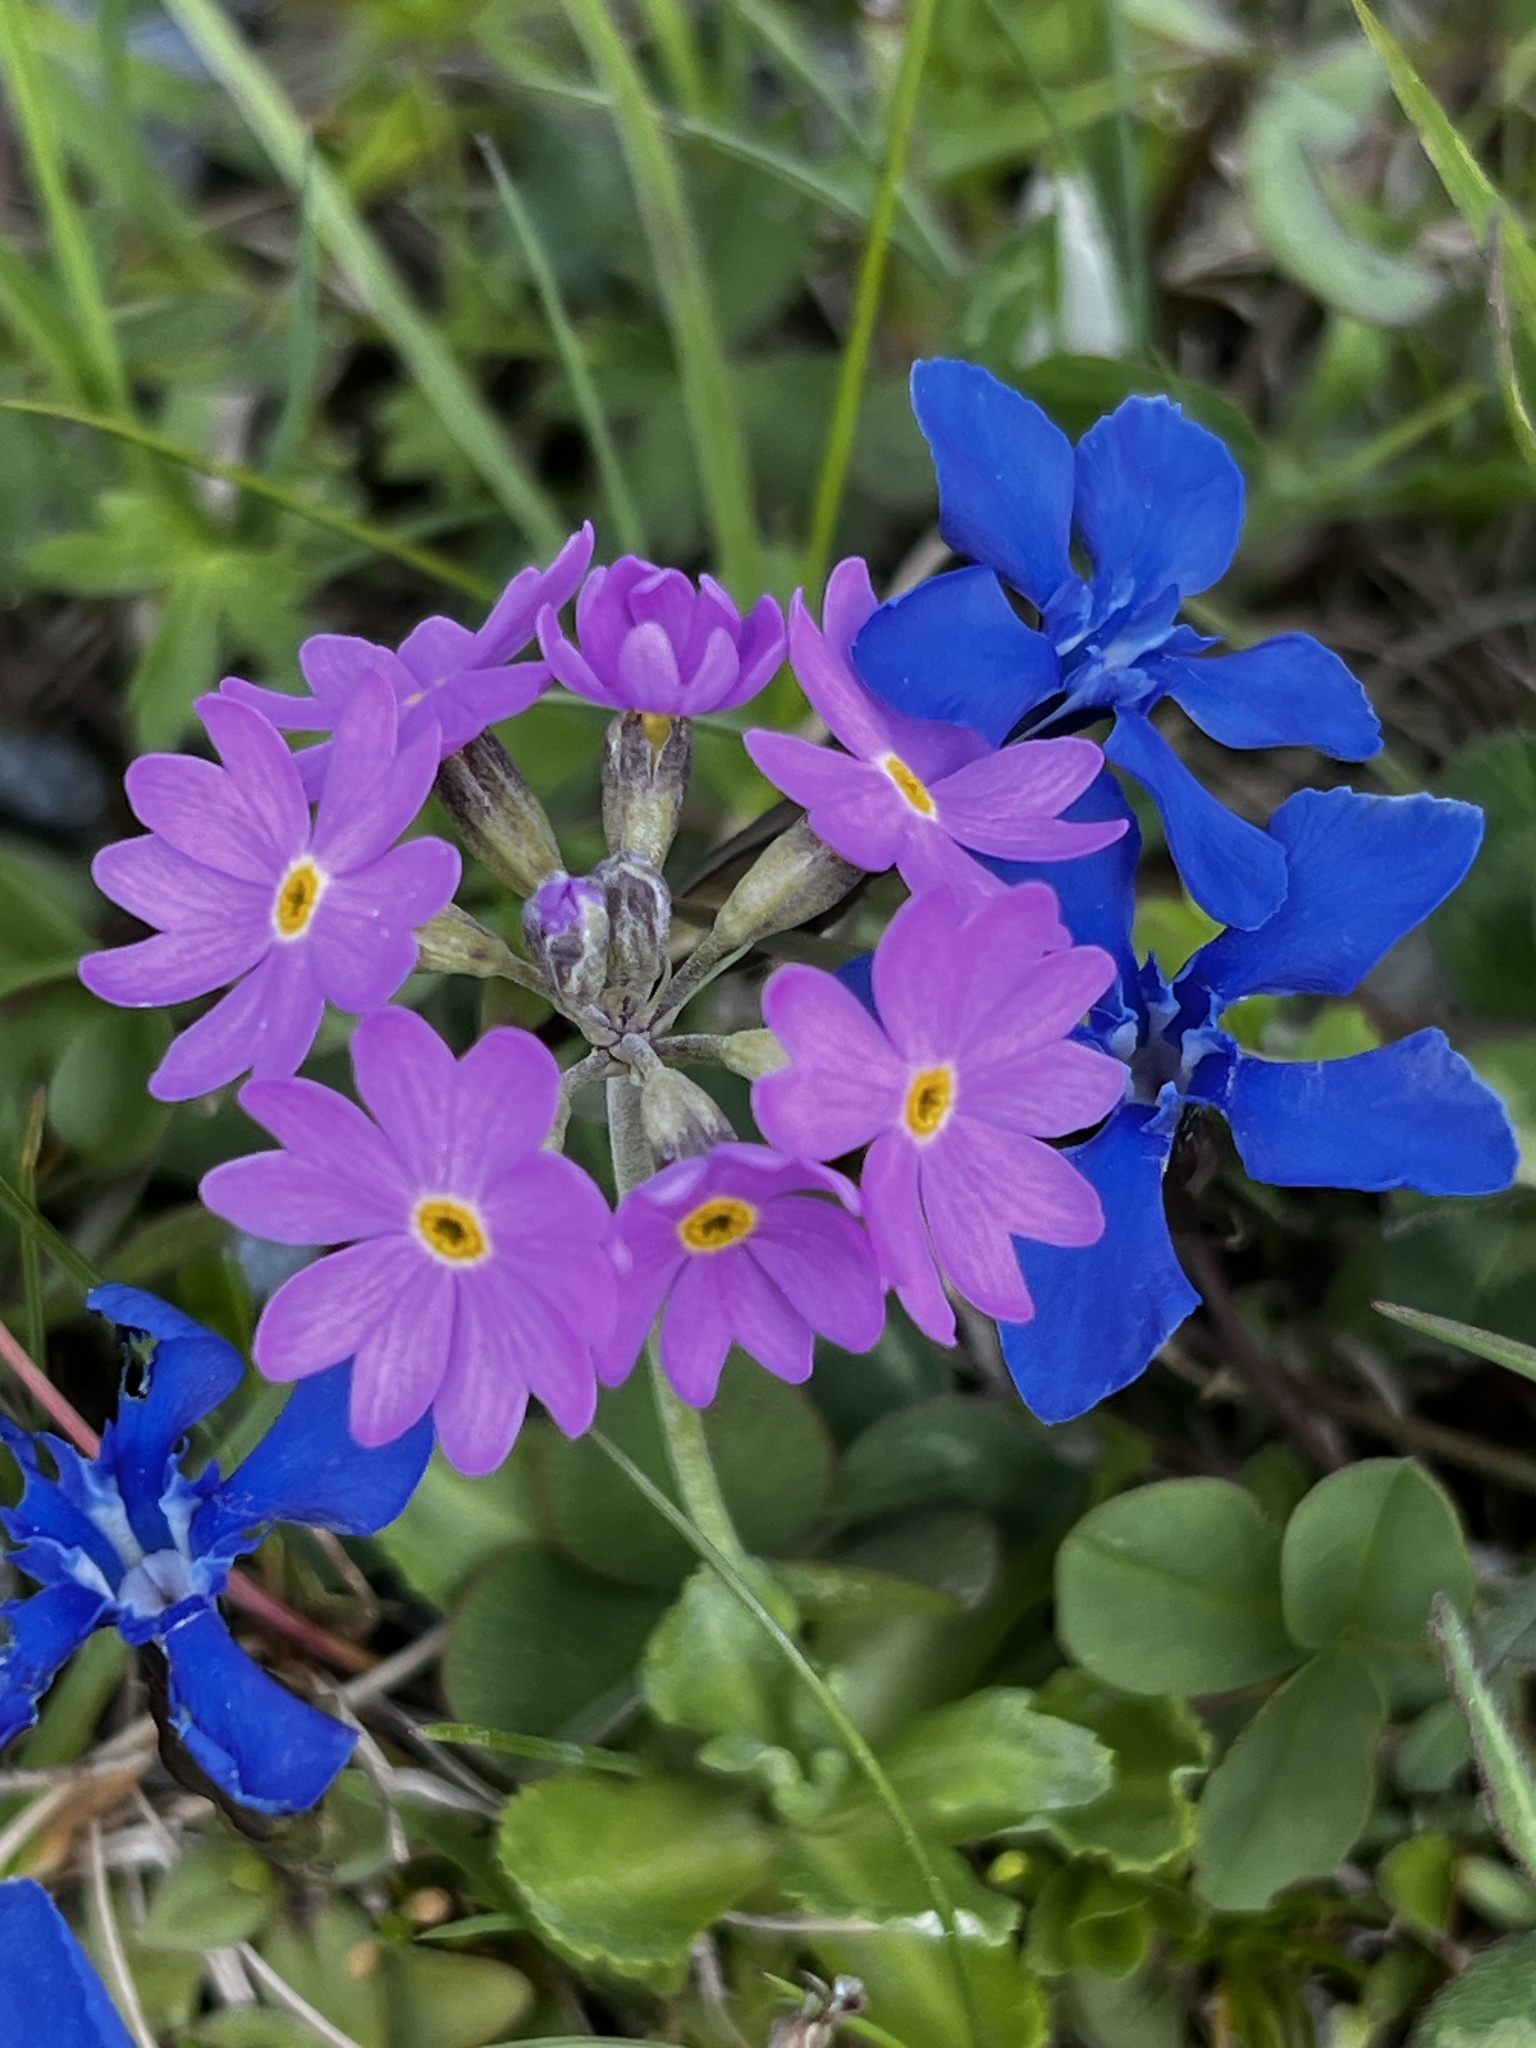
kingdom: Plantae
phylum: Tracheophyta
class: Magnoliopsida
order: Ericales
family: Primulaceae
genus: Primula
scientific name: Primula farinosa
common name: Bird's-eye primrose
